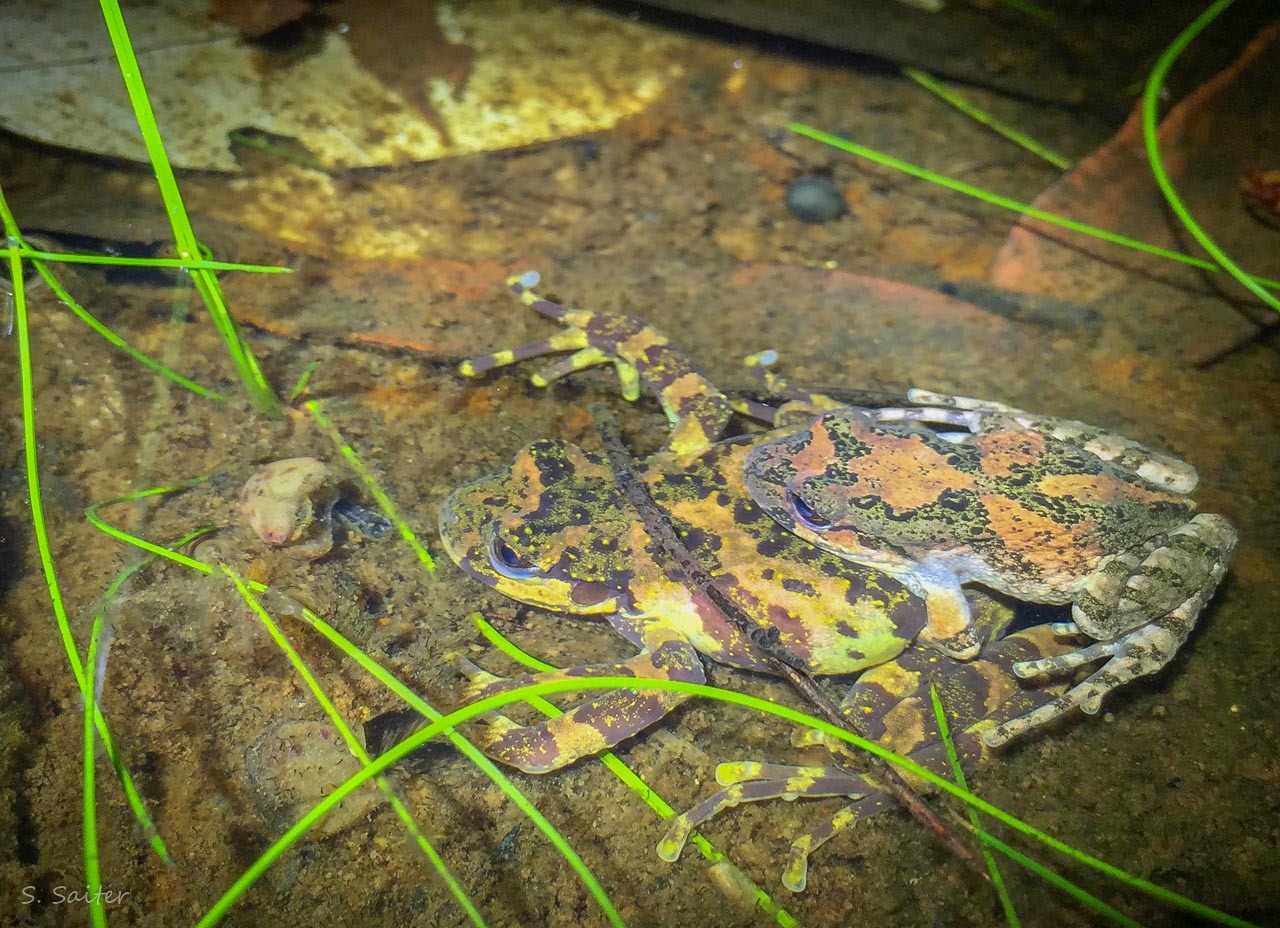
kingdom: Animalia
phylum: Chordata
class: Amphibia
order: Anura
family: Batrachylidae
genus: Batrachyla
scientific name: Batrachyla antartandica
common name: Marbled wood frog
